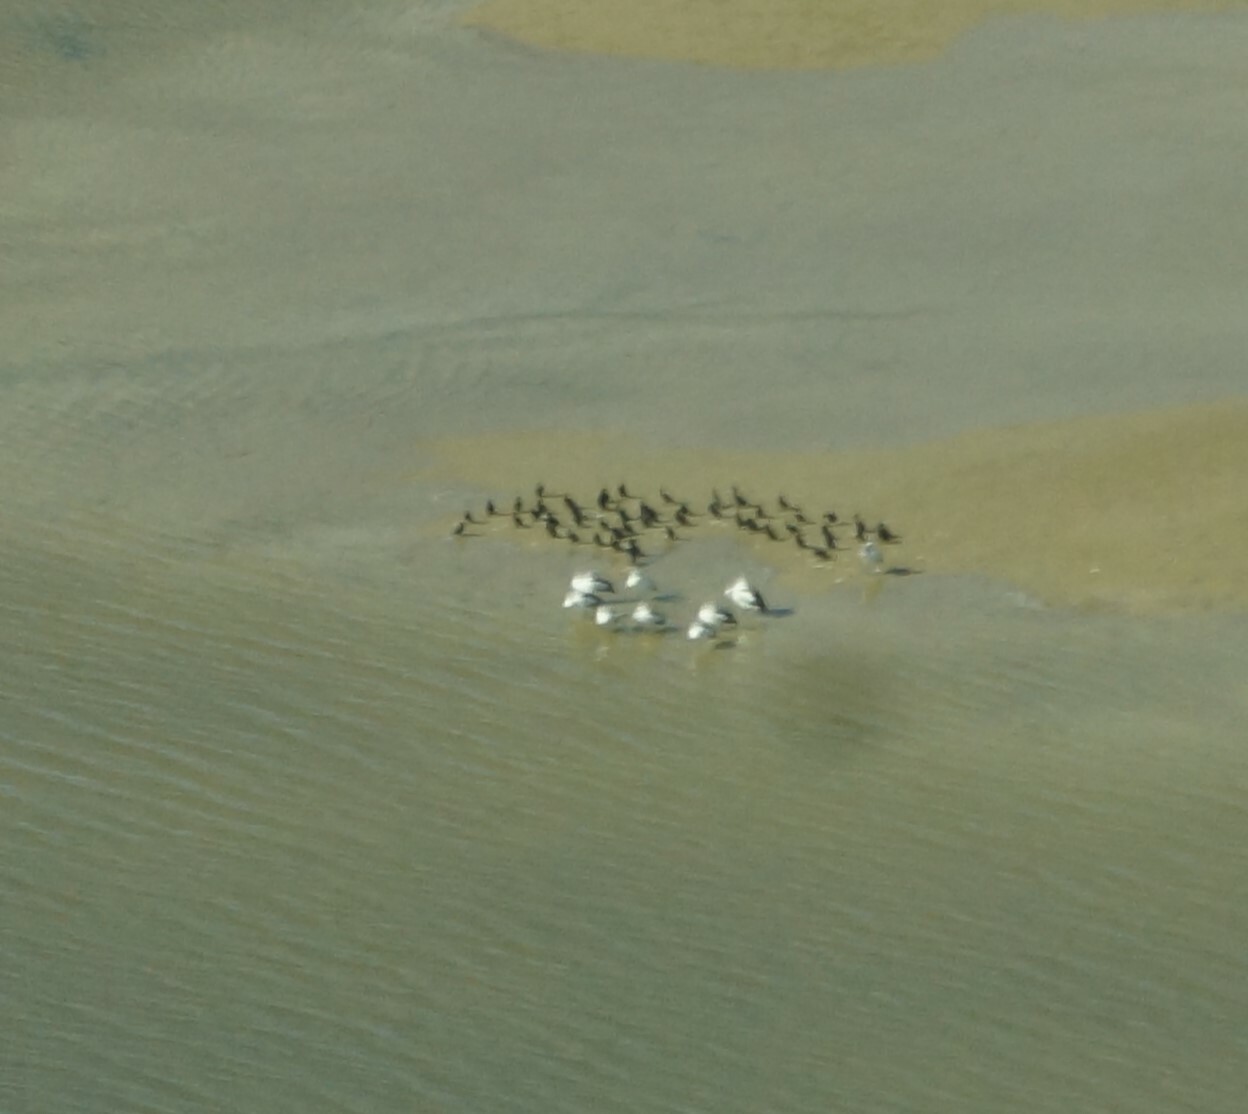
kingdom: Animalia
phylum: Chordata
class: Aves
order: Pelecaniformes
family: Pelecanidae
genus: Pelecanus
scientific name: Pelecanus conspicillatus
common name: Australian pelican
